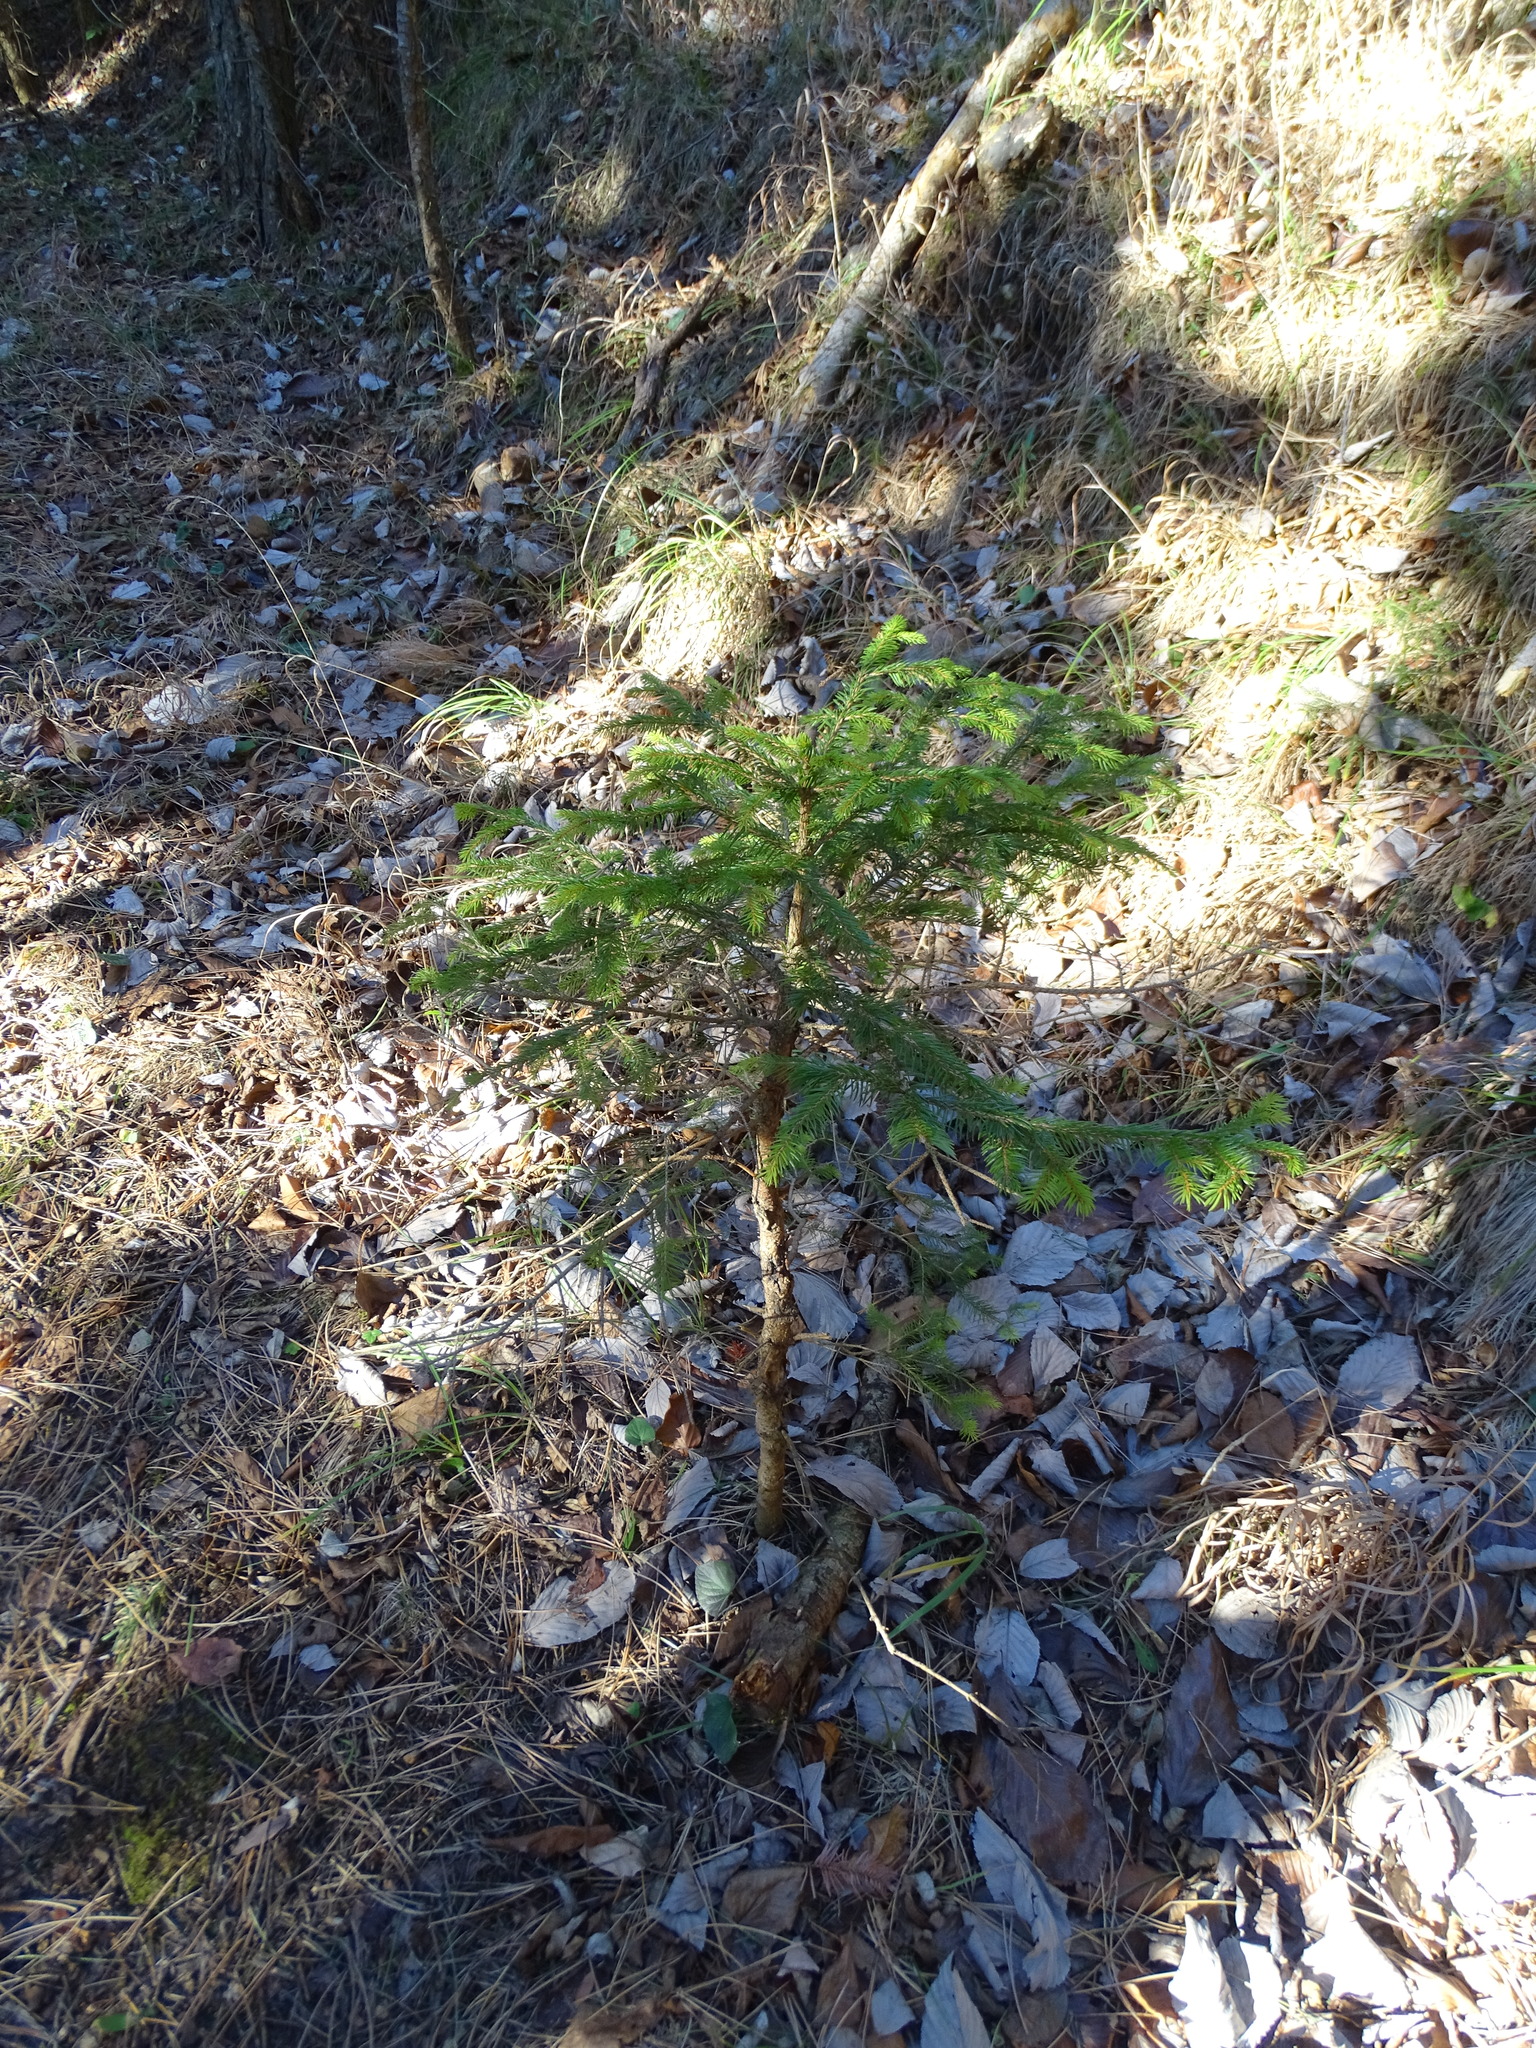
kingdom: Plantae
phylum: Tracheophyta
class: Pinopsida
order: Pinales
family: Pinaceae
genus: Picea
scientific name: Picea abies
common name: Norway spruce
